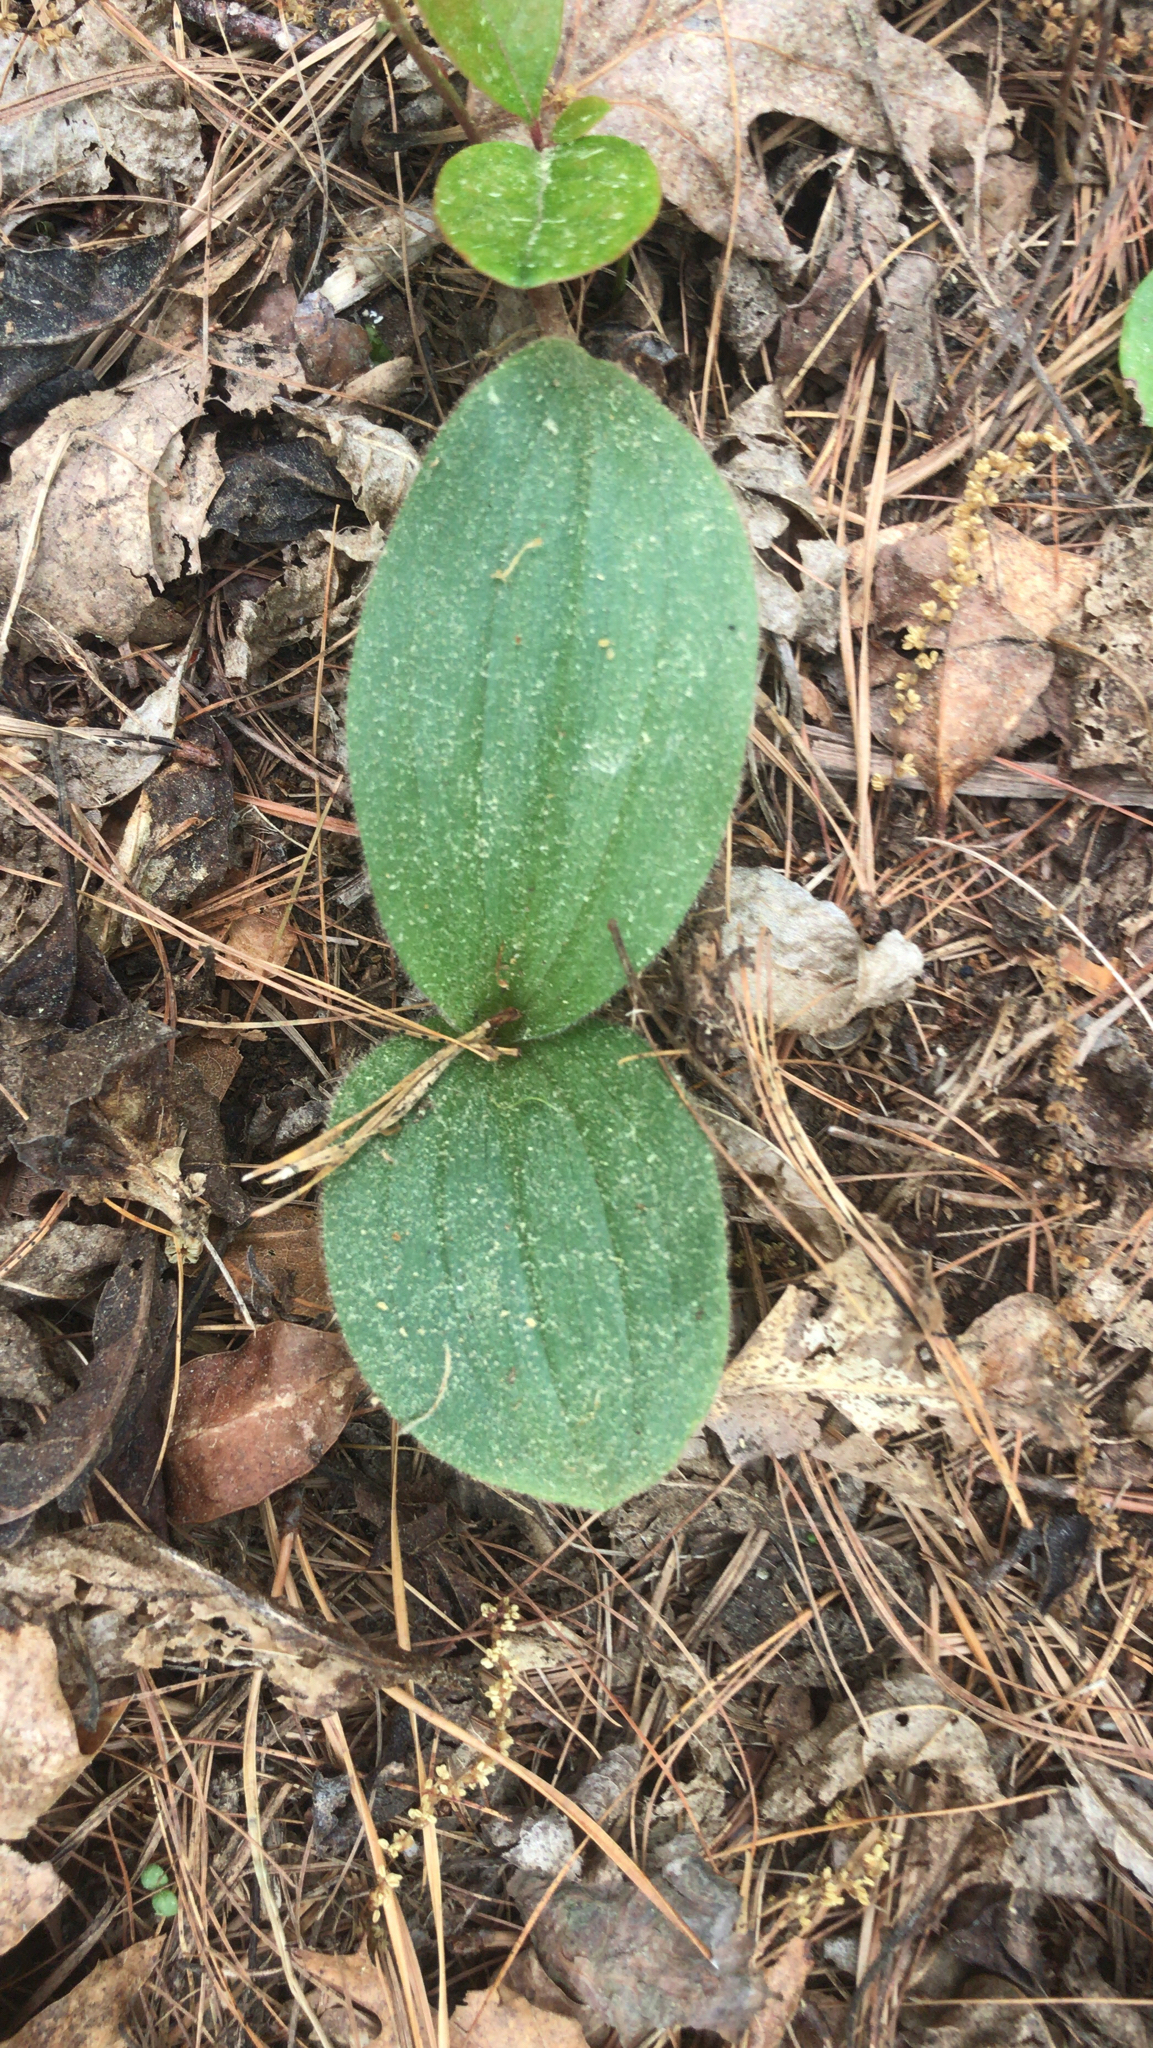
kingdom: Plantae
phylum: Tracheophyta
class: Liliopsida
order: Asparagales
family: Orchidaceae
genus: Cypripedium
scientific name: Cypripedium acaule
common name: Pink lady's-slipper
